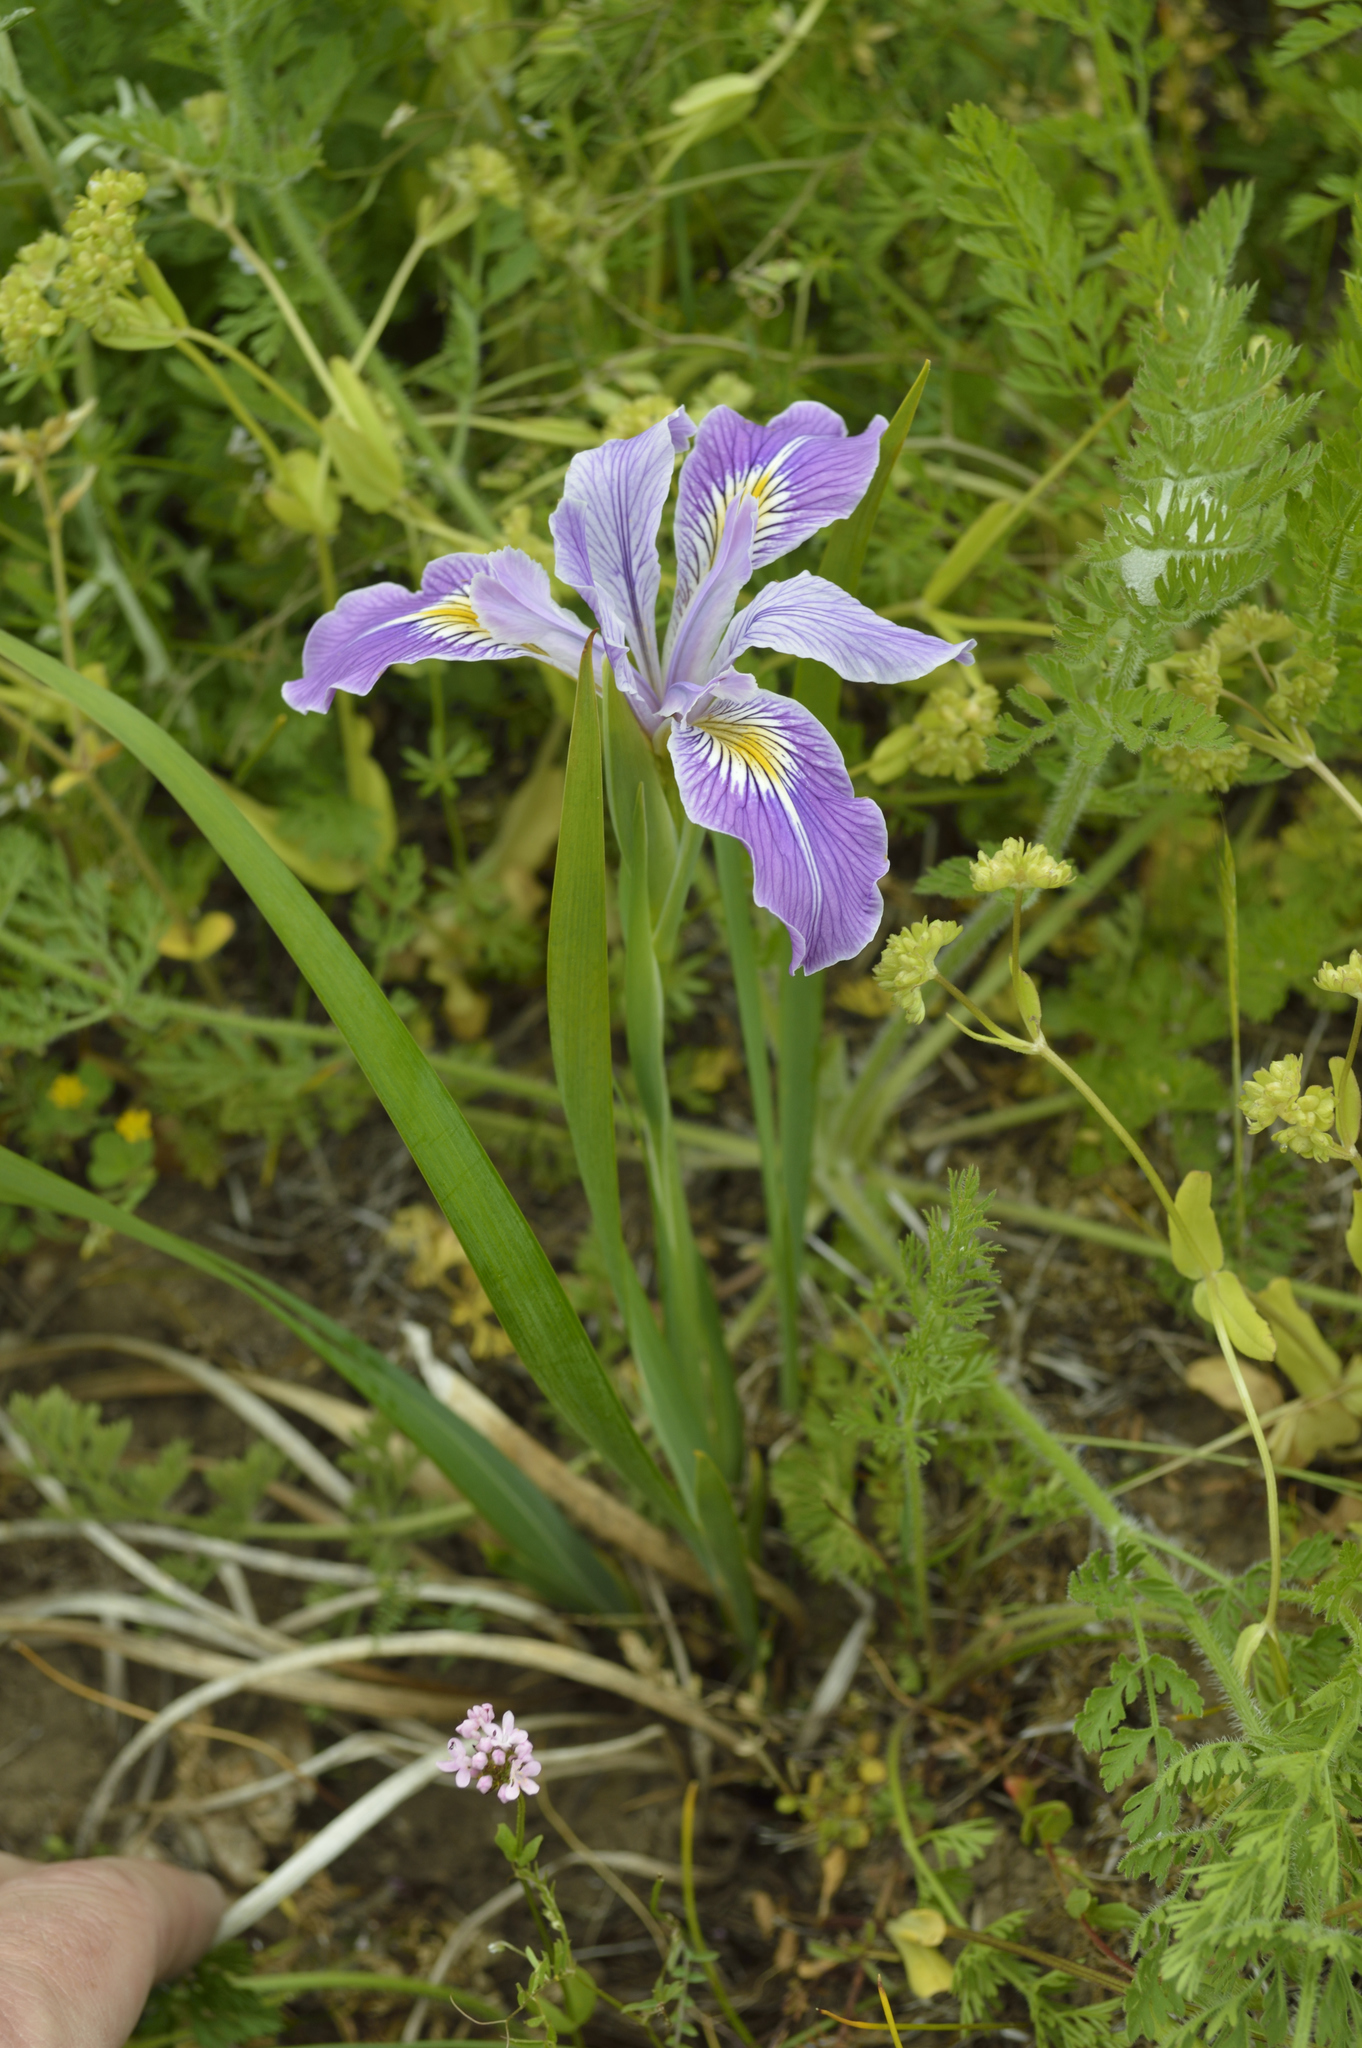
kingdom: Plantae
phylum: Tracheophyta
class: Liliopsida
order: Asparagales
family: Iridaceae
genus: Iris
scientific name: Iris tenax
